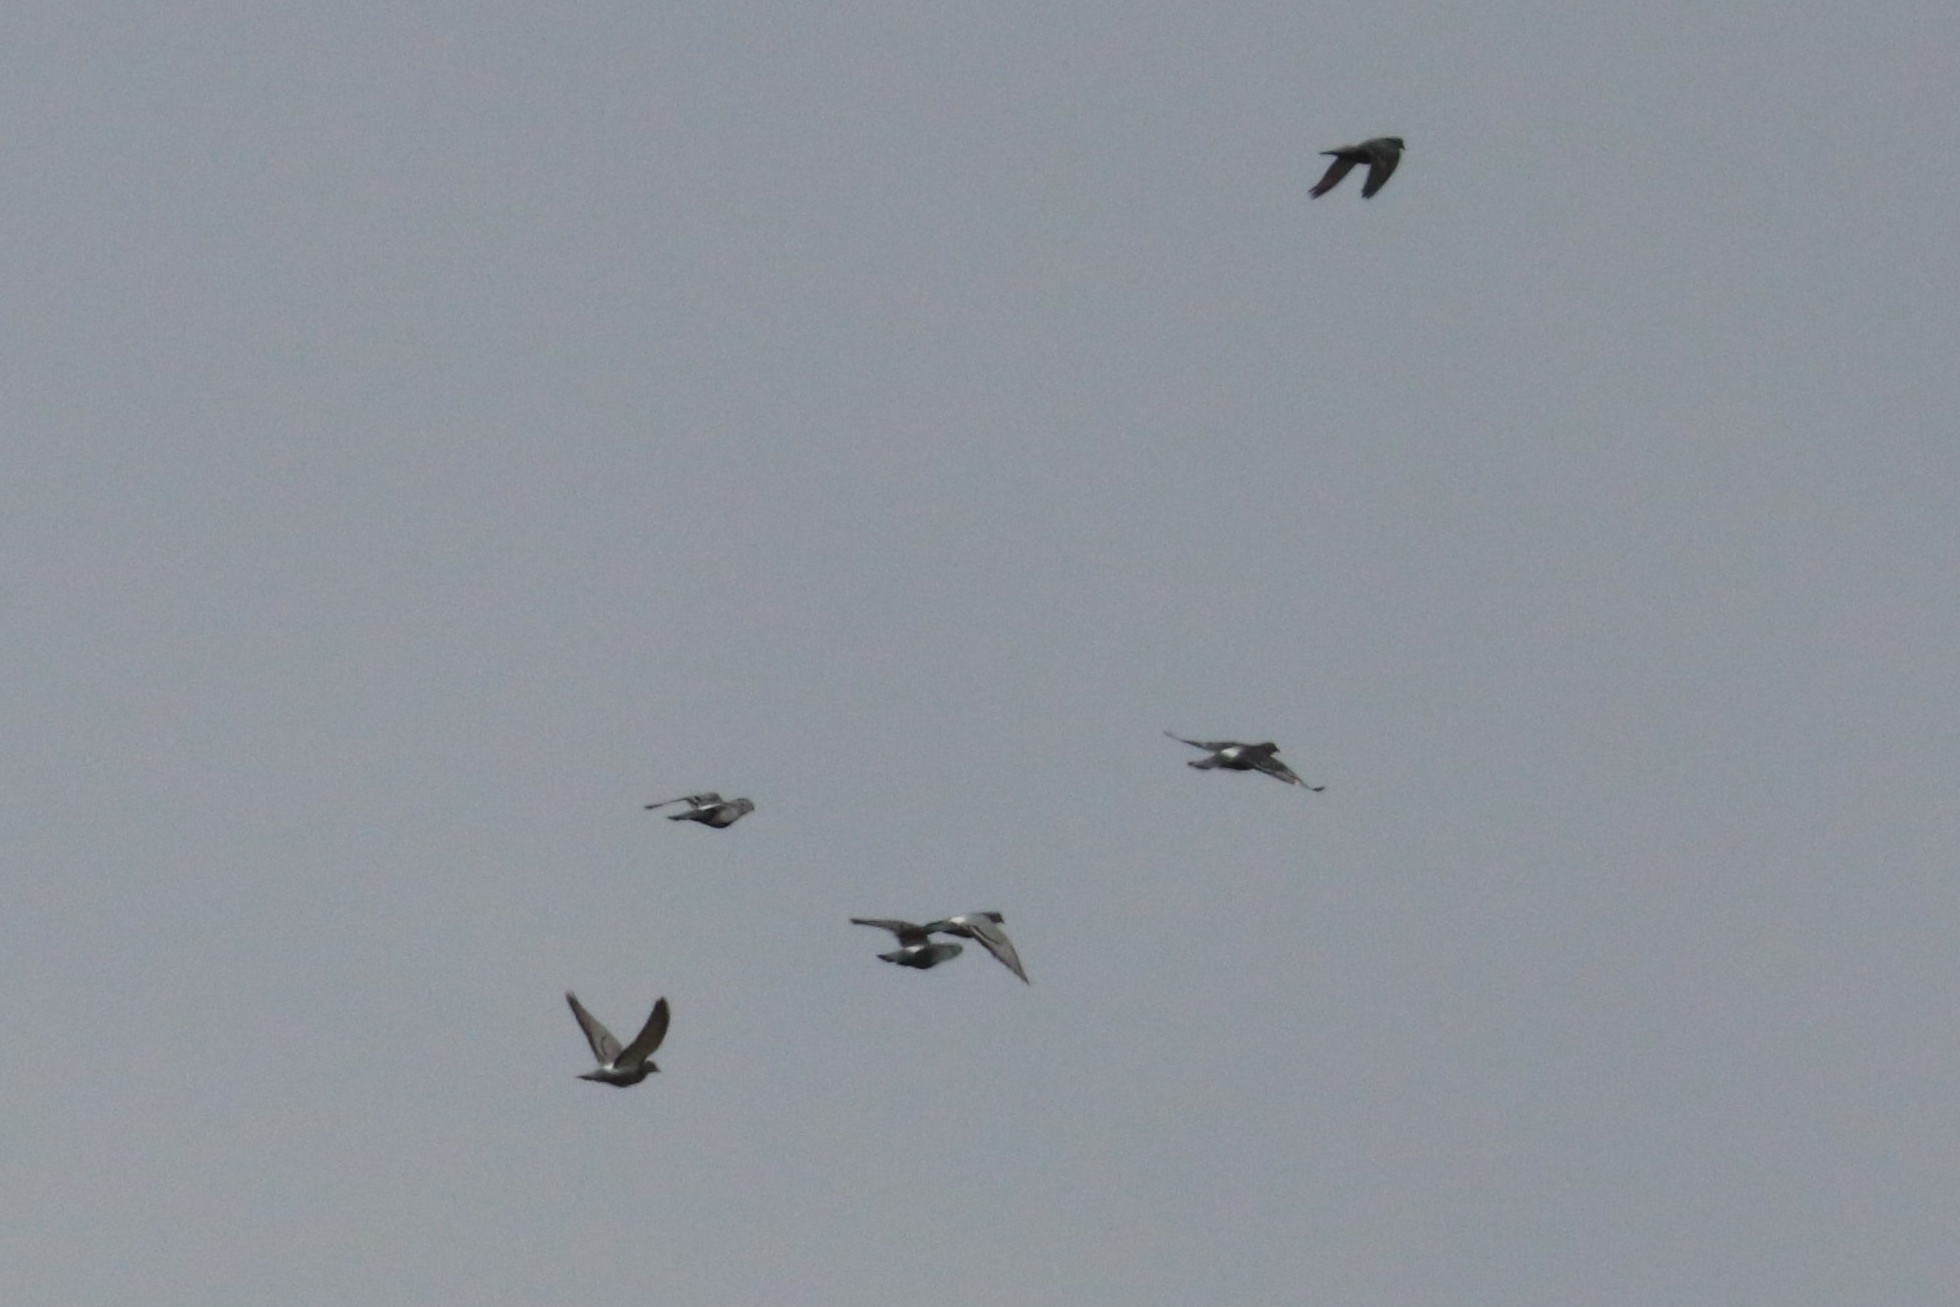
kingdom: Animalia
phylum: Chordata
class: Aves
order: Columbiformes
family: Columbidae
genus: Columba
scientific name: Columba livia
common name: Rock pigeon
